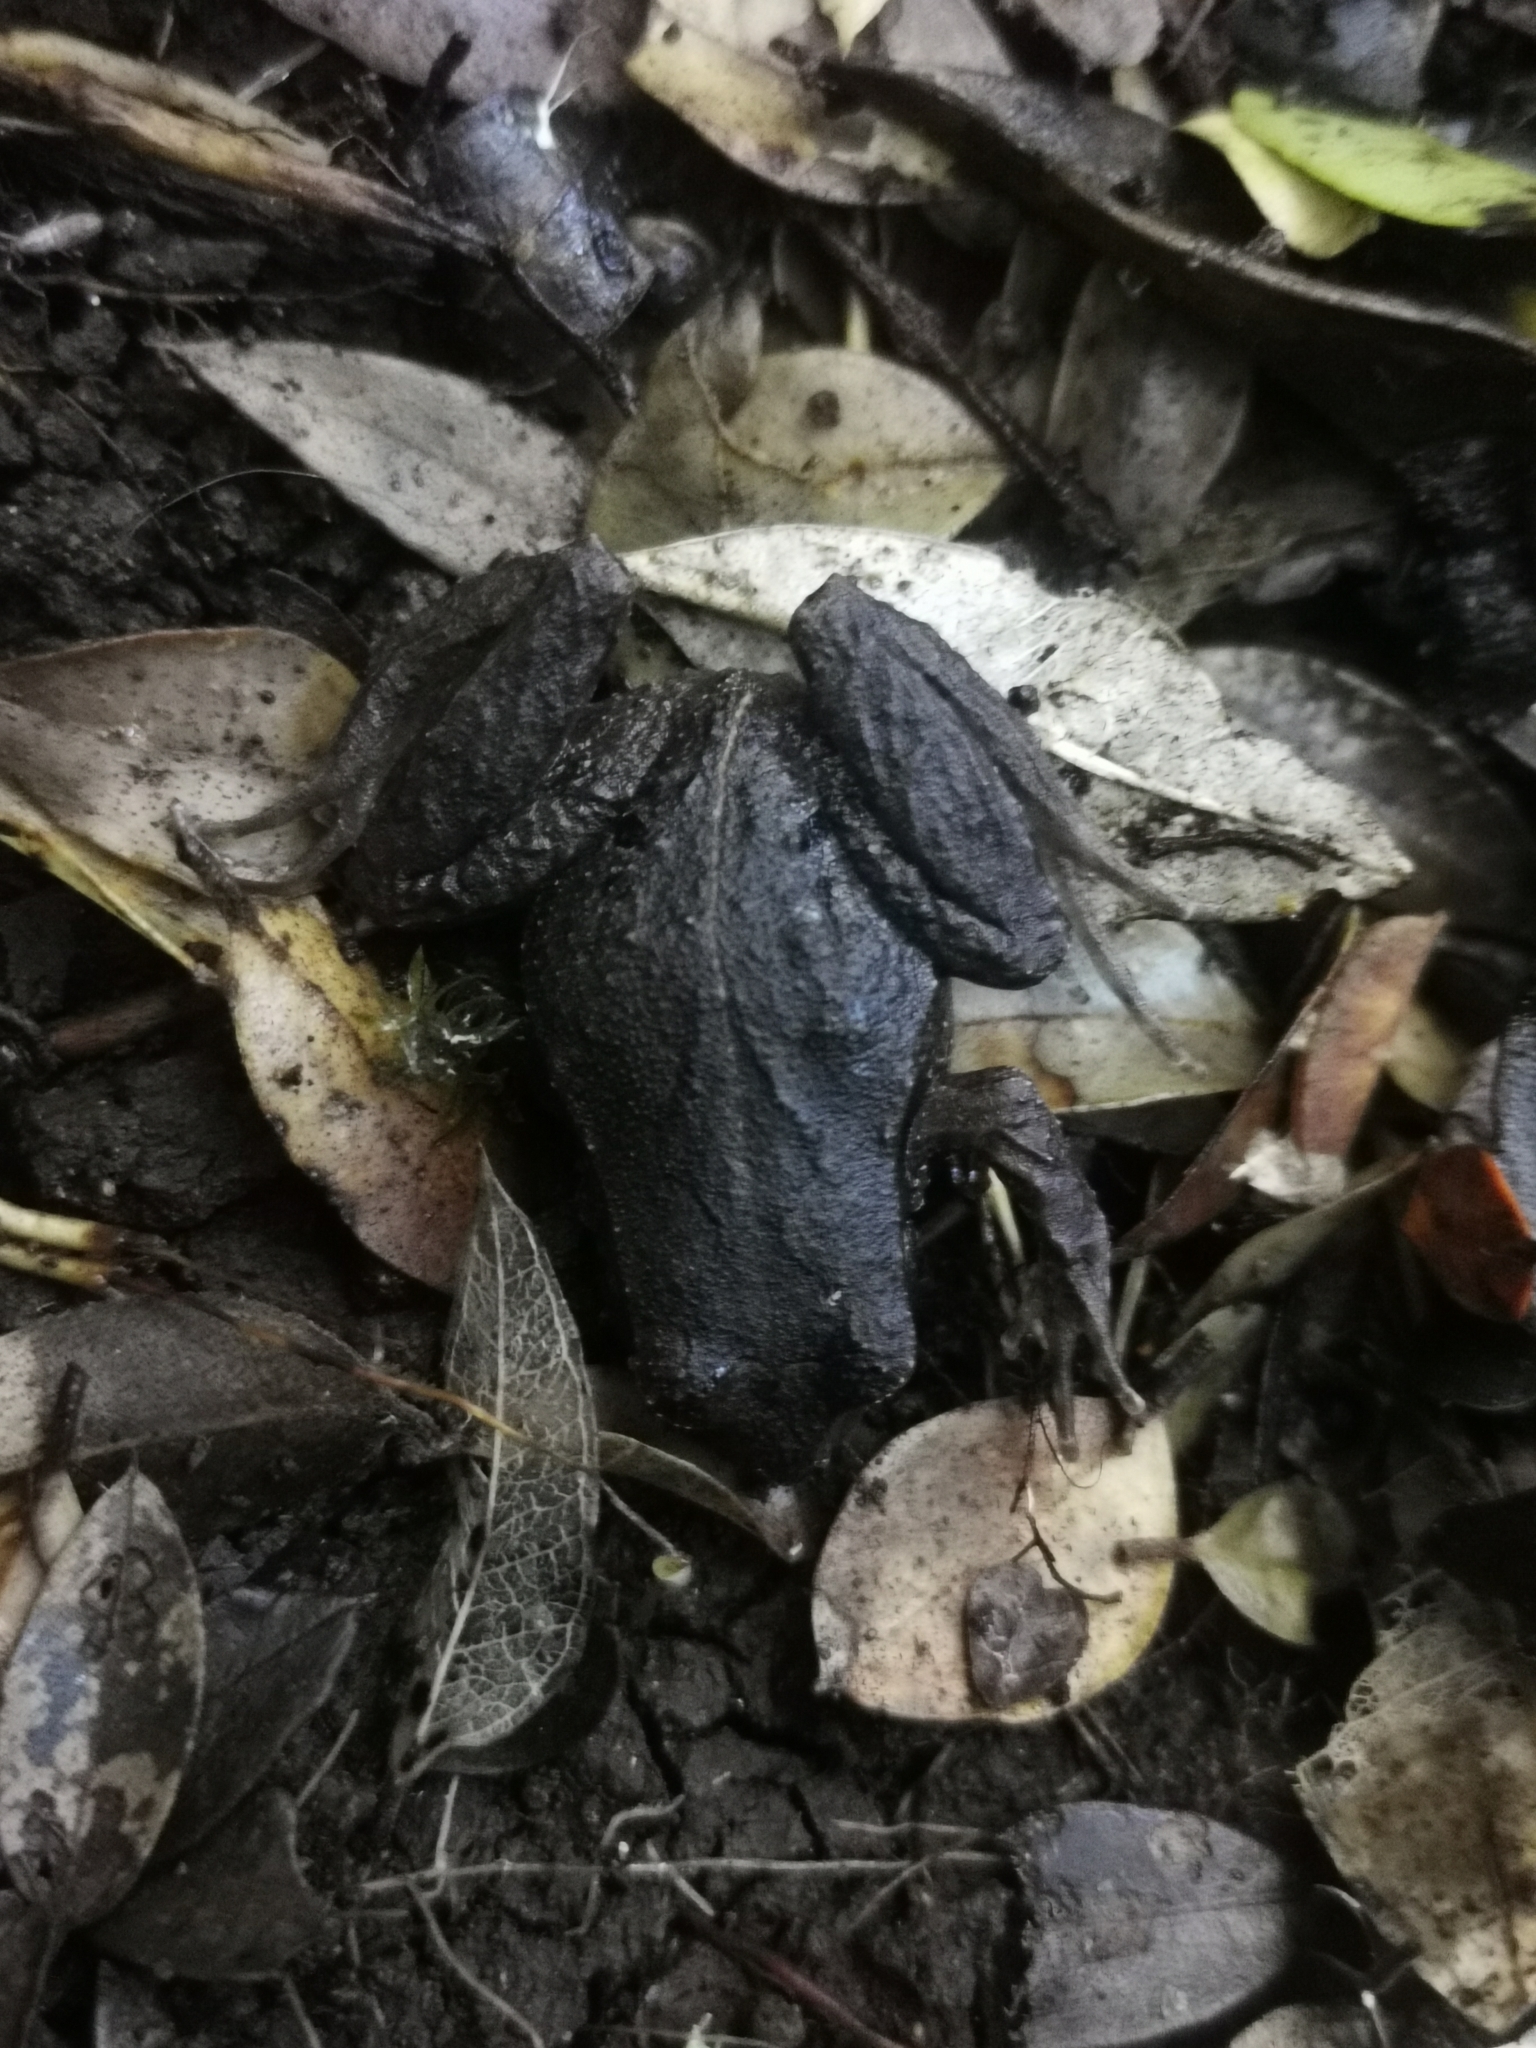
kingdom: Animalia
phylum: Chordata
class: Amphibia
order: Anura
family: Alsodidae
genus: Eupsophus
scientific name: Eupsophus calcaratus
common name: Chiloe island ground frog
